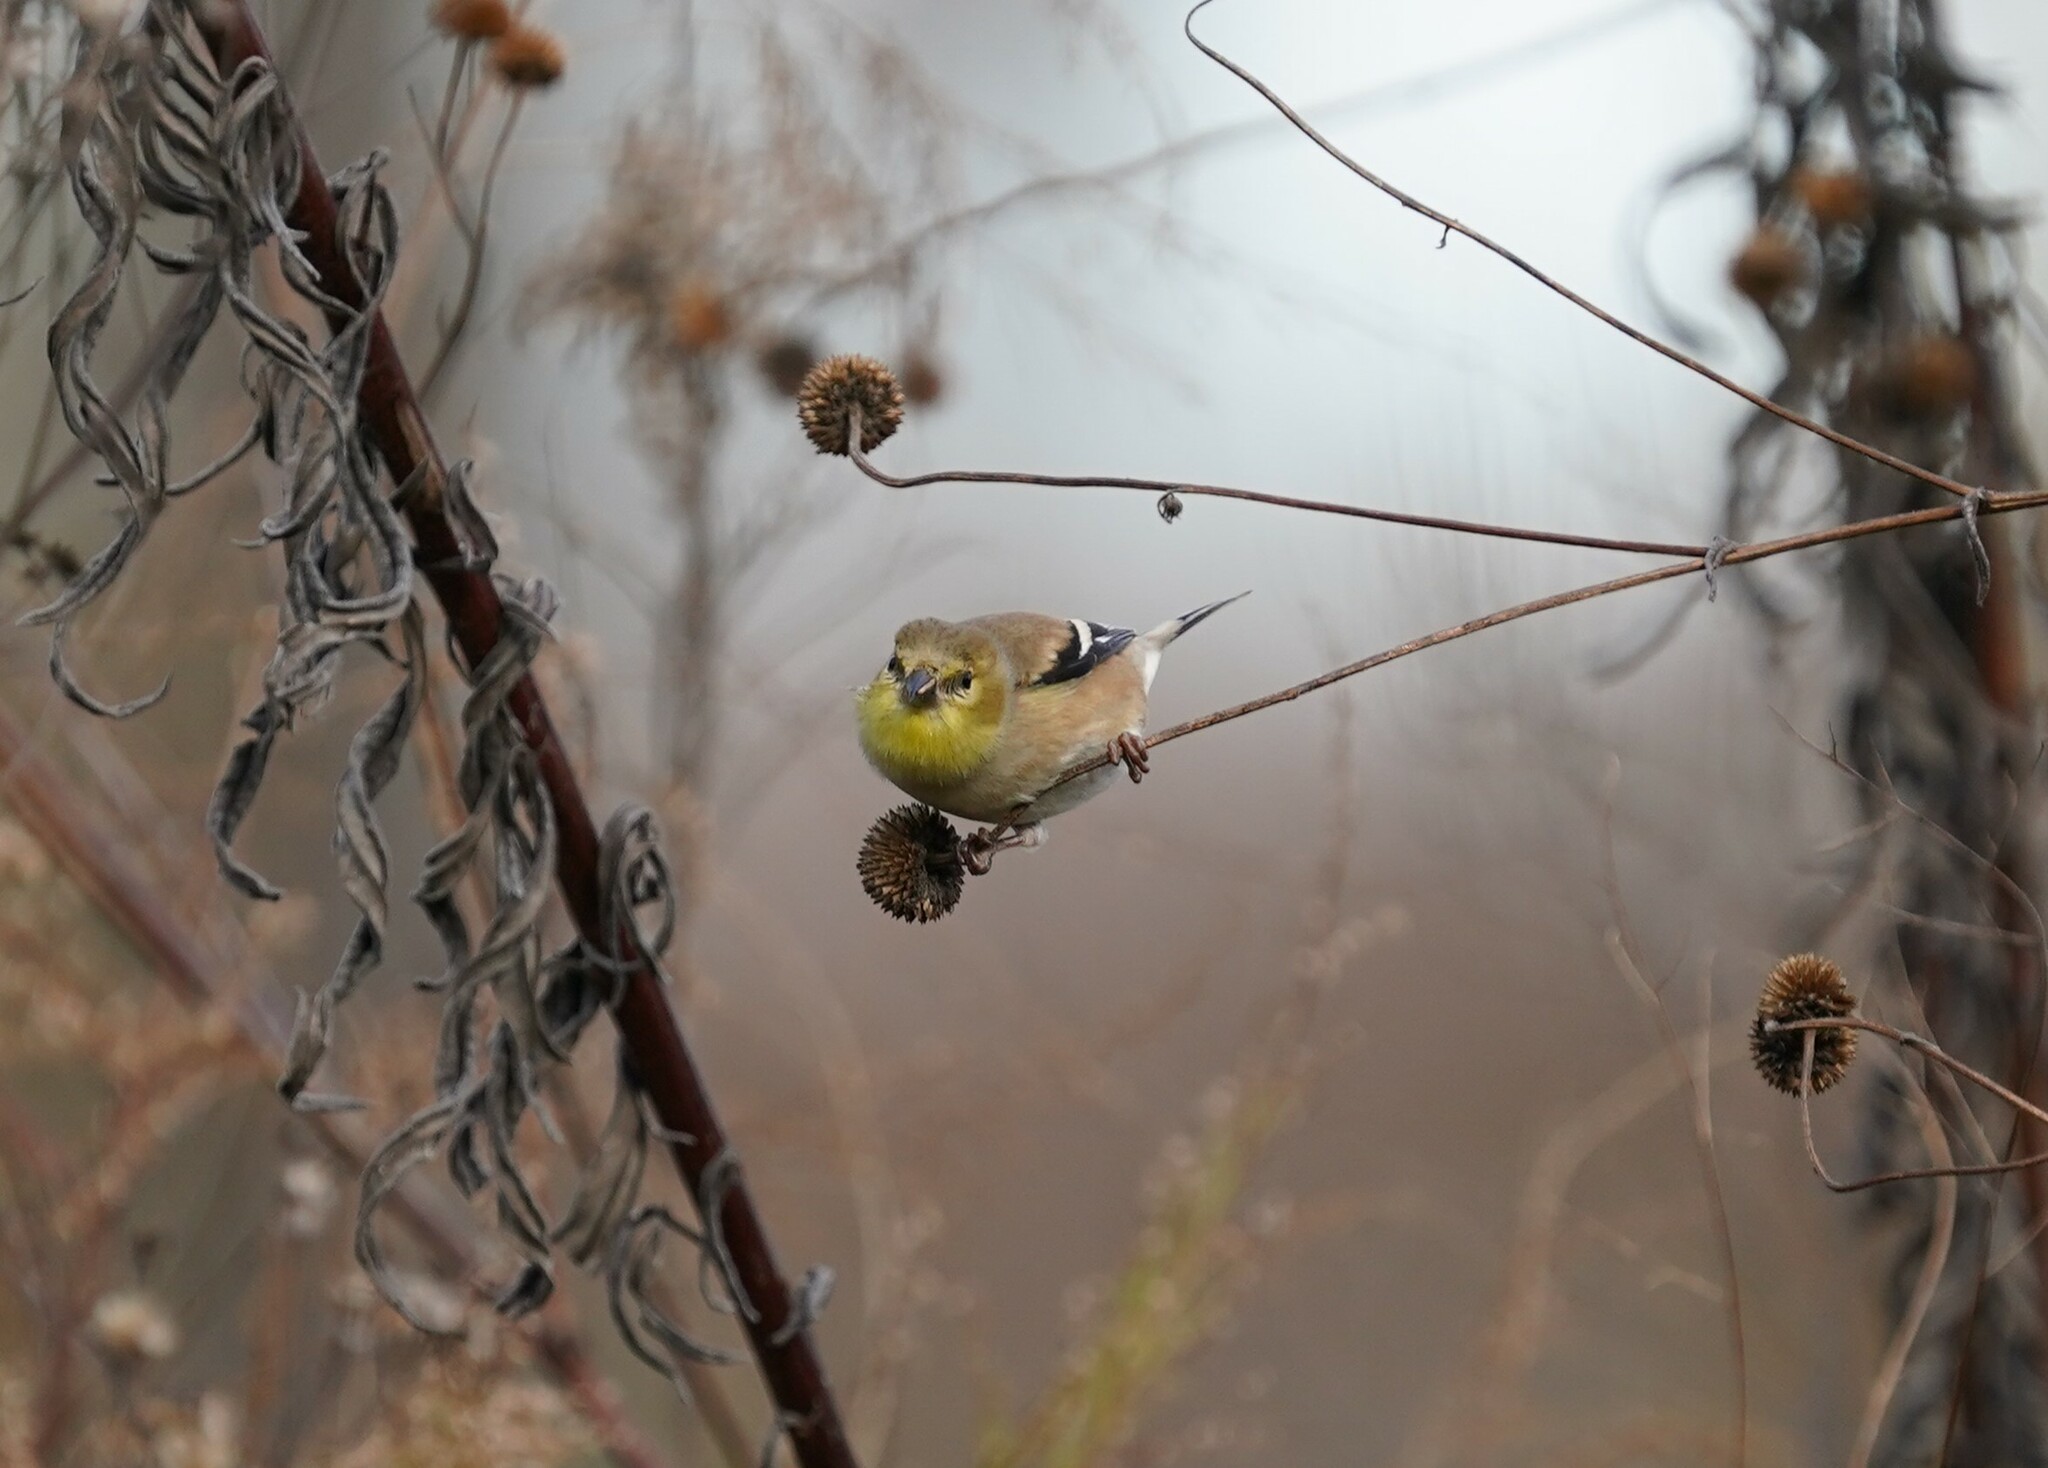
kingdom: Animalia
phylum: Chordata
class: Aves
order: Passeriformes
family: Fringillidae
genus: Spinus
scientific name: Spinus tristis
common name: American goldfinch
